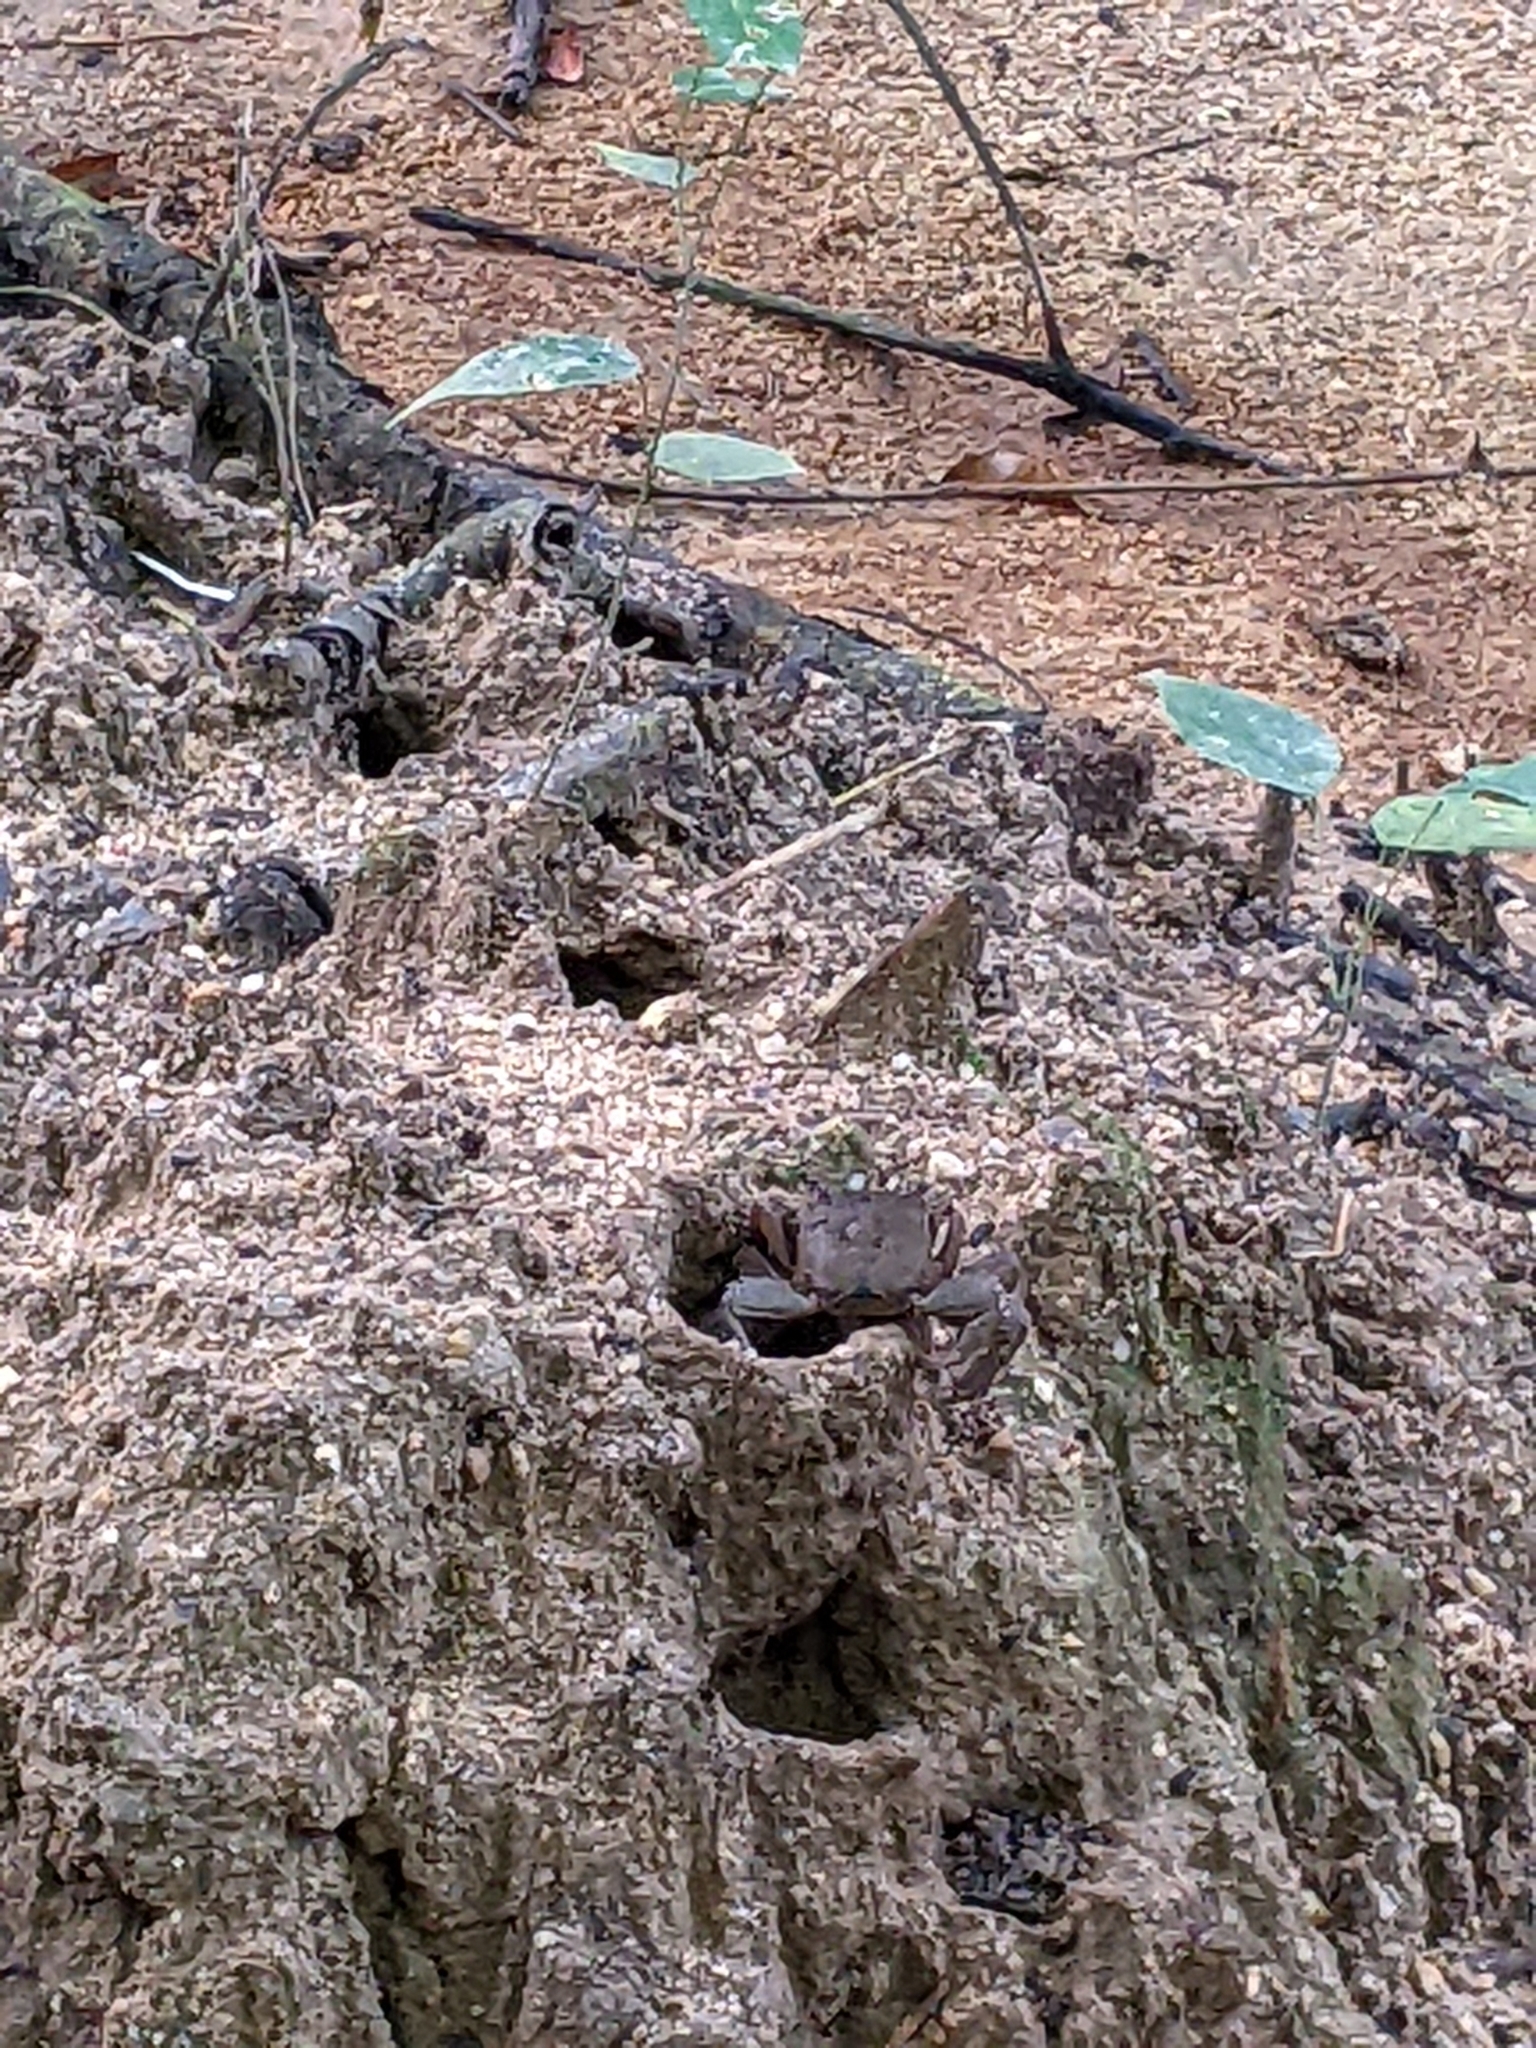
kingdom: Animalia
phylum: Arthropoda
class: Malacostraca
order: Decapoda
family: Sesarmidae
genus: Episesarma
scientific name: Episesarma
